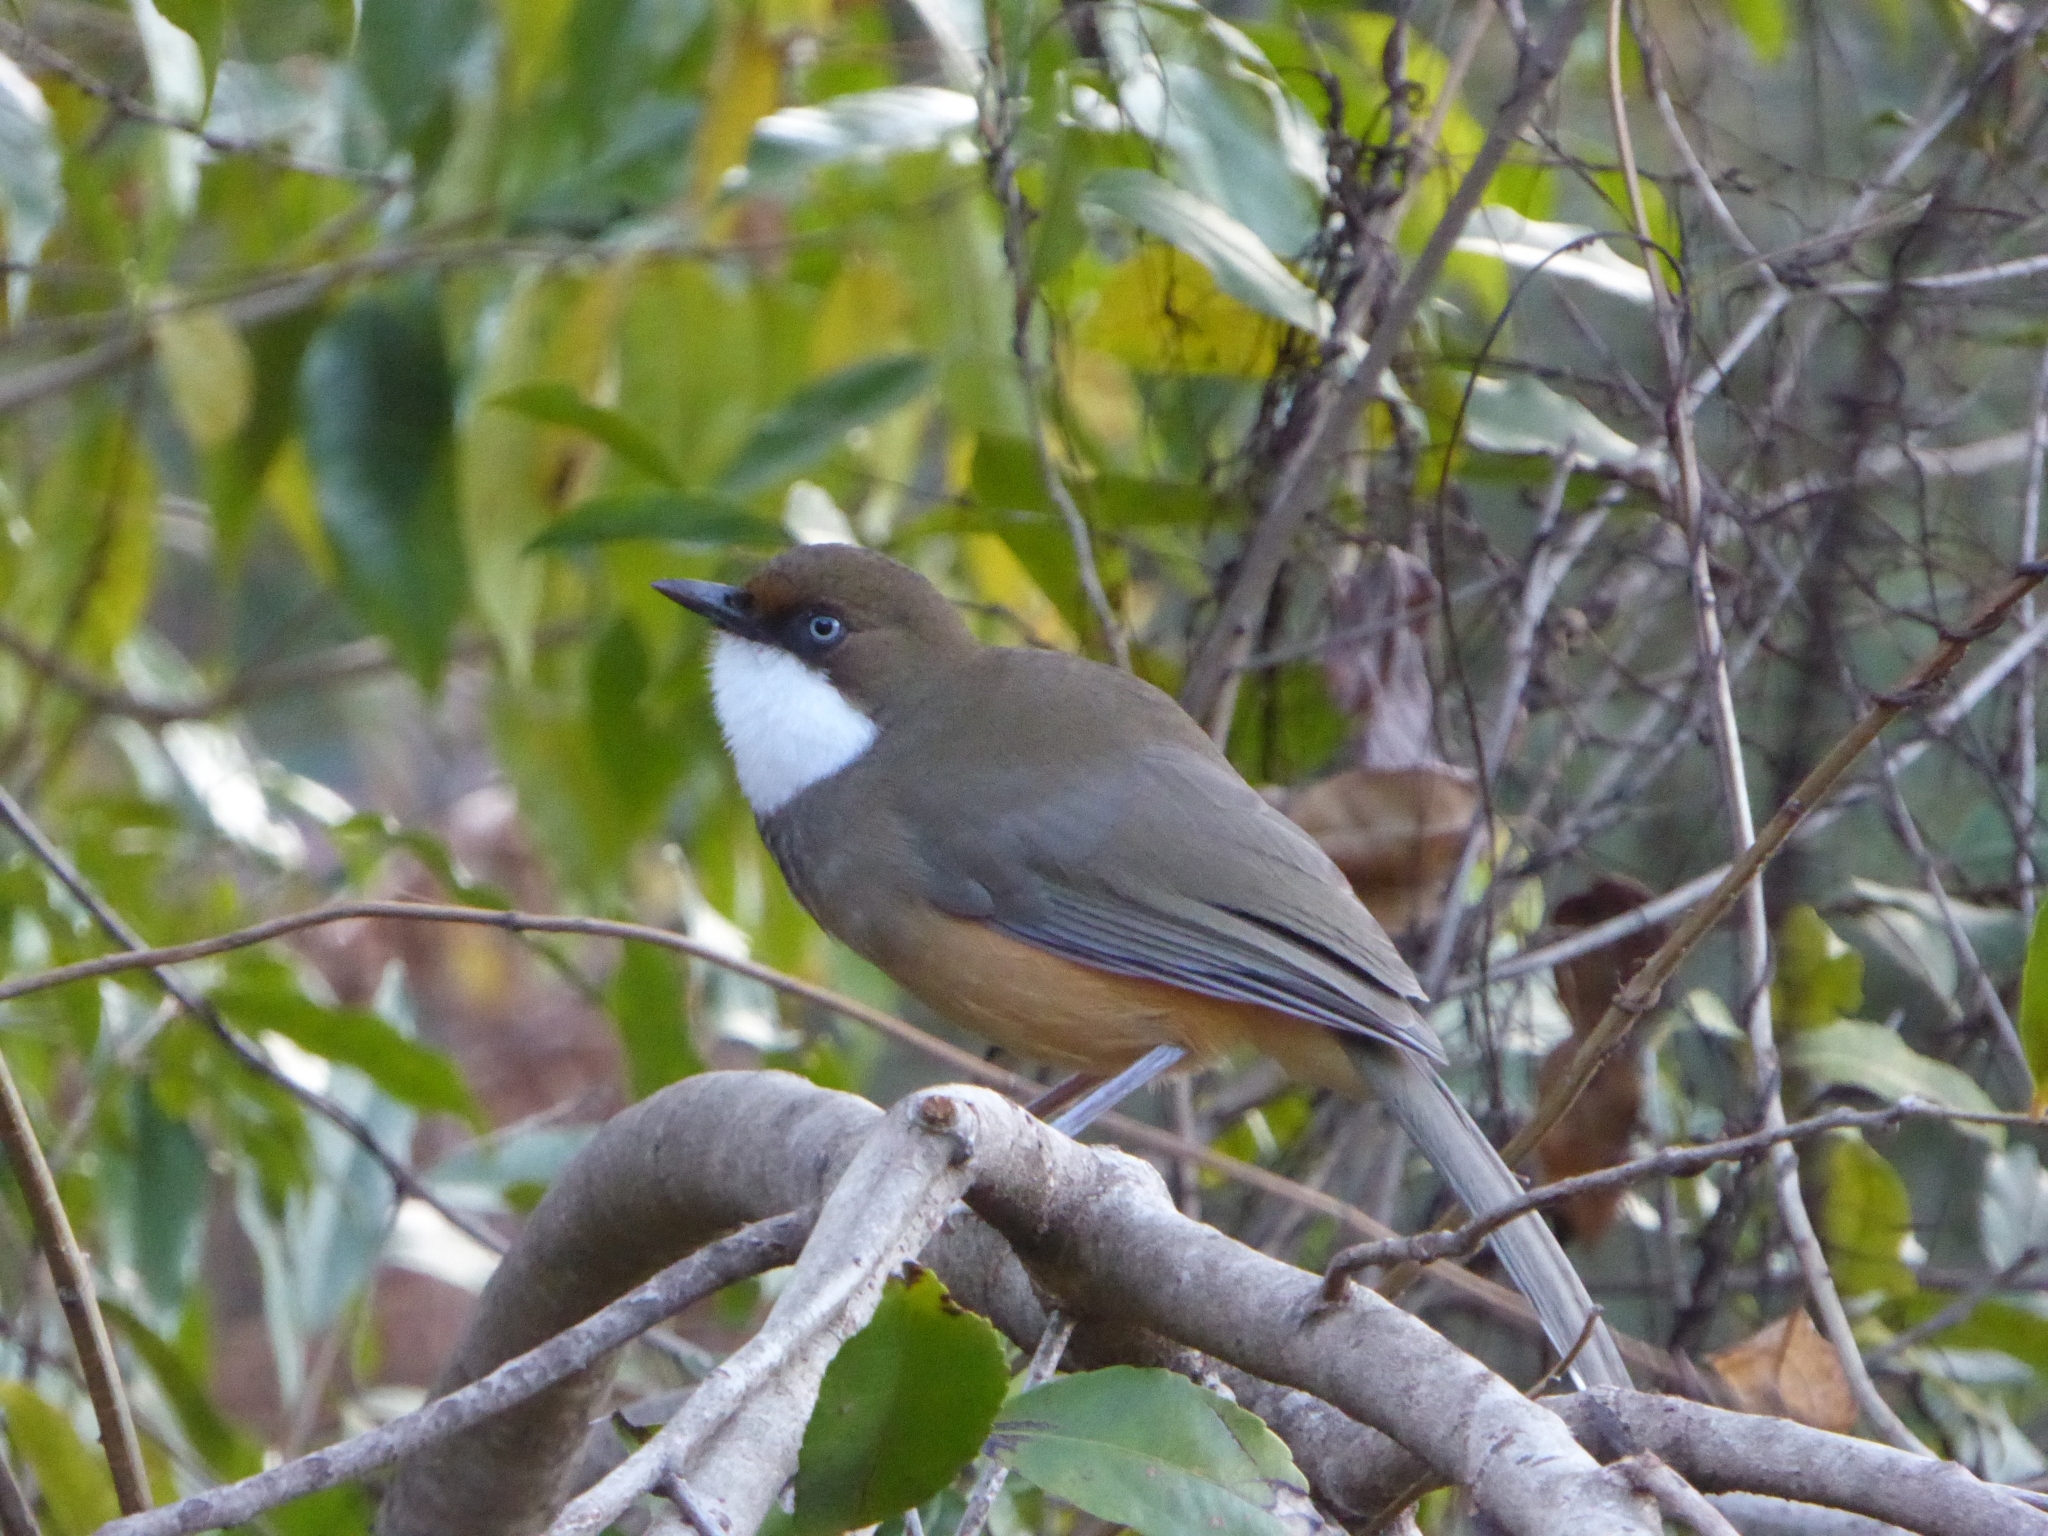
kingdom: Animalia
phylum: Chordata
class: Aves
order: Passeriformes
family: Leiothrichidae
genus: Garrulax
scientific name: Garrulax albogularis
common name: White-throated laughingthrush
